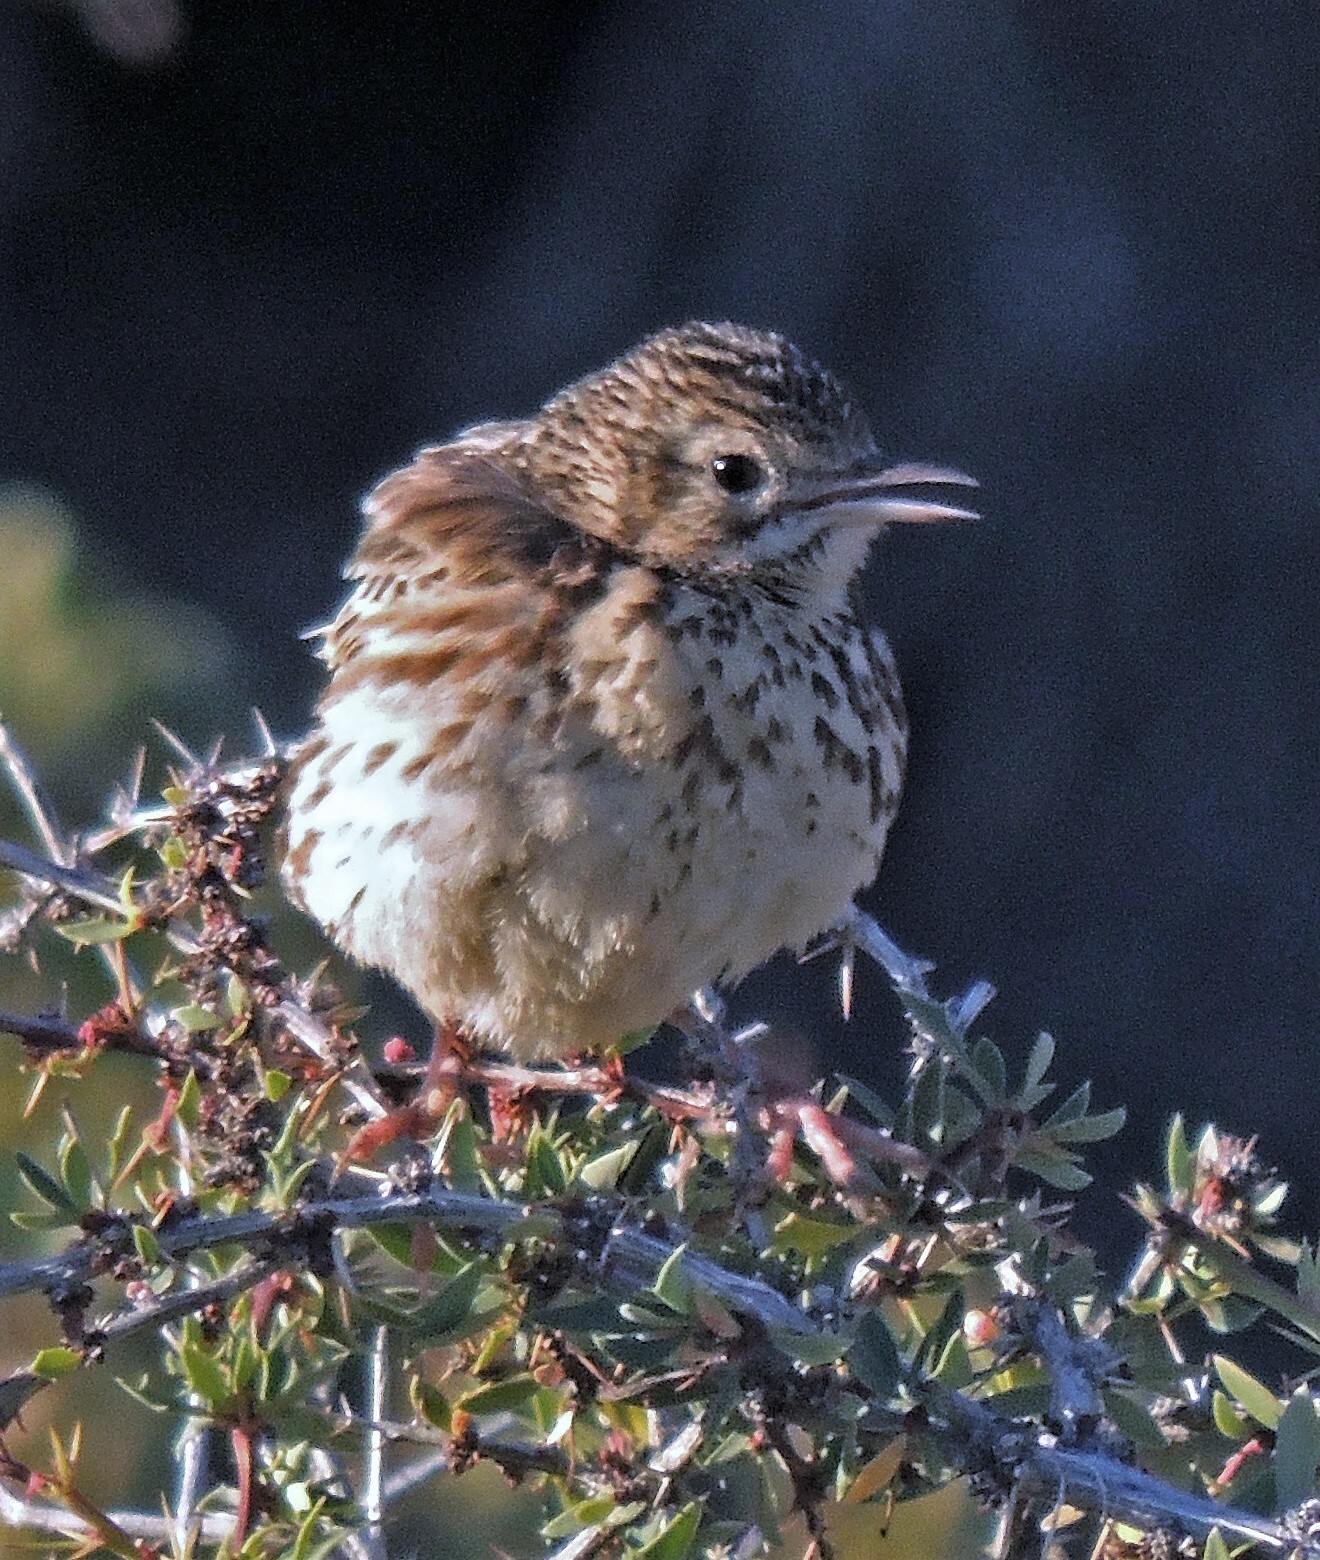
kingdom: Animalia
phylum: Chordata
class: Aves
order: Passeriformes
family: Motacillidae
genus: Anthus
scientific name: Anthus correndera
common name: Correndera pipit
